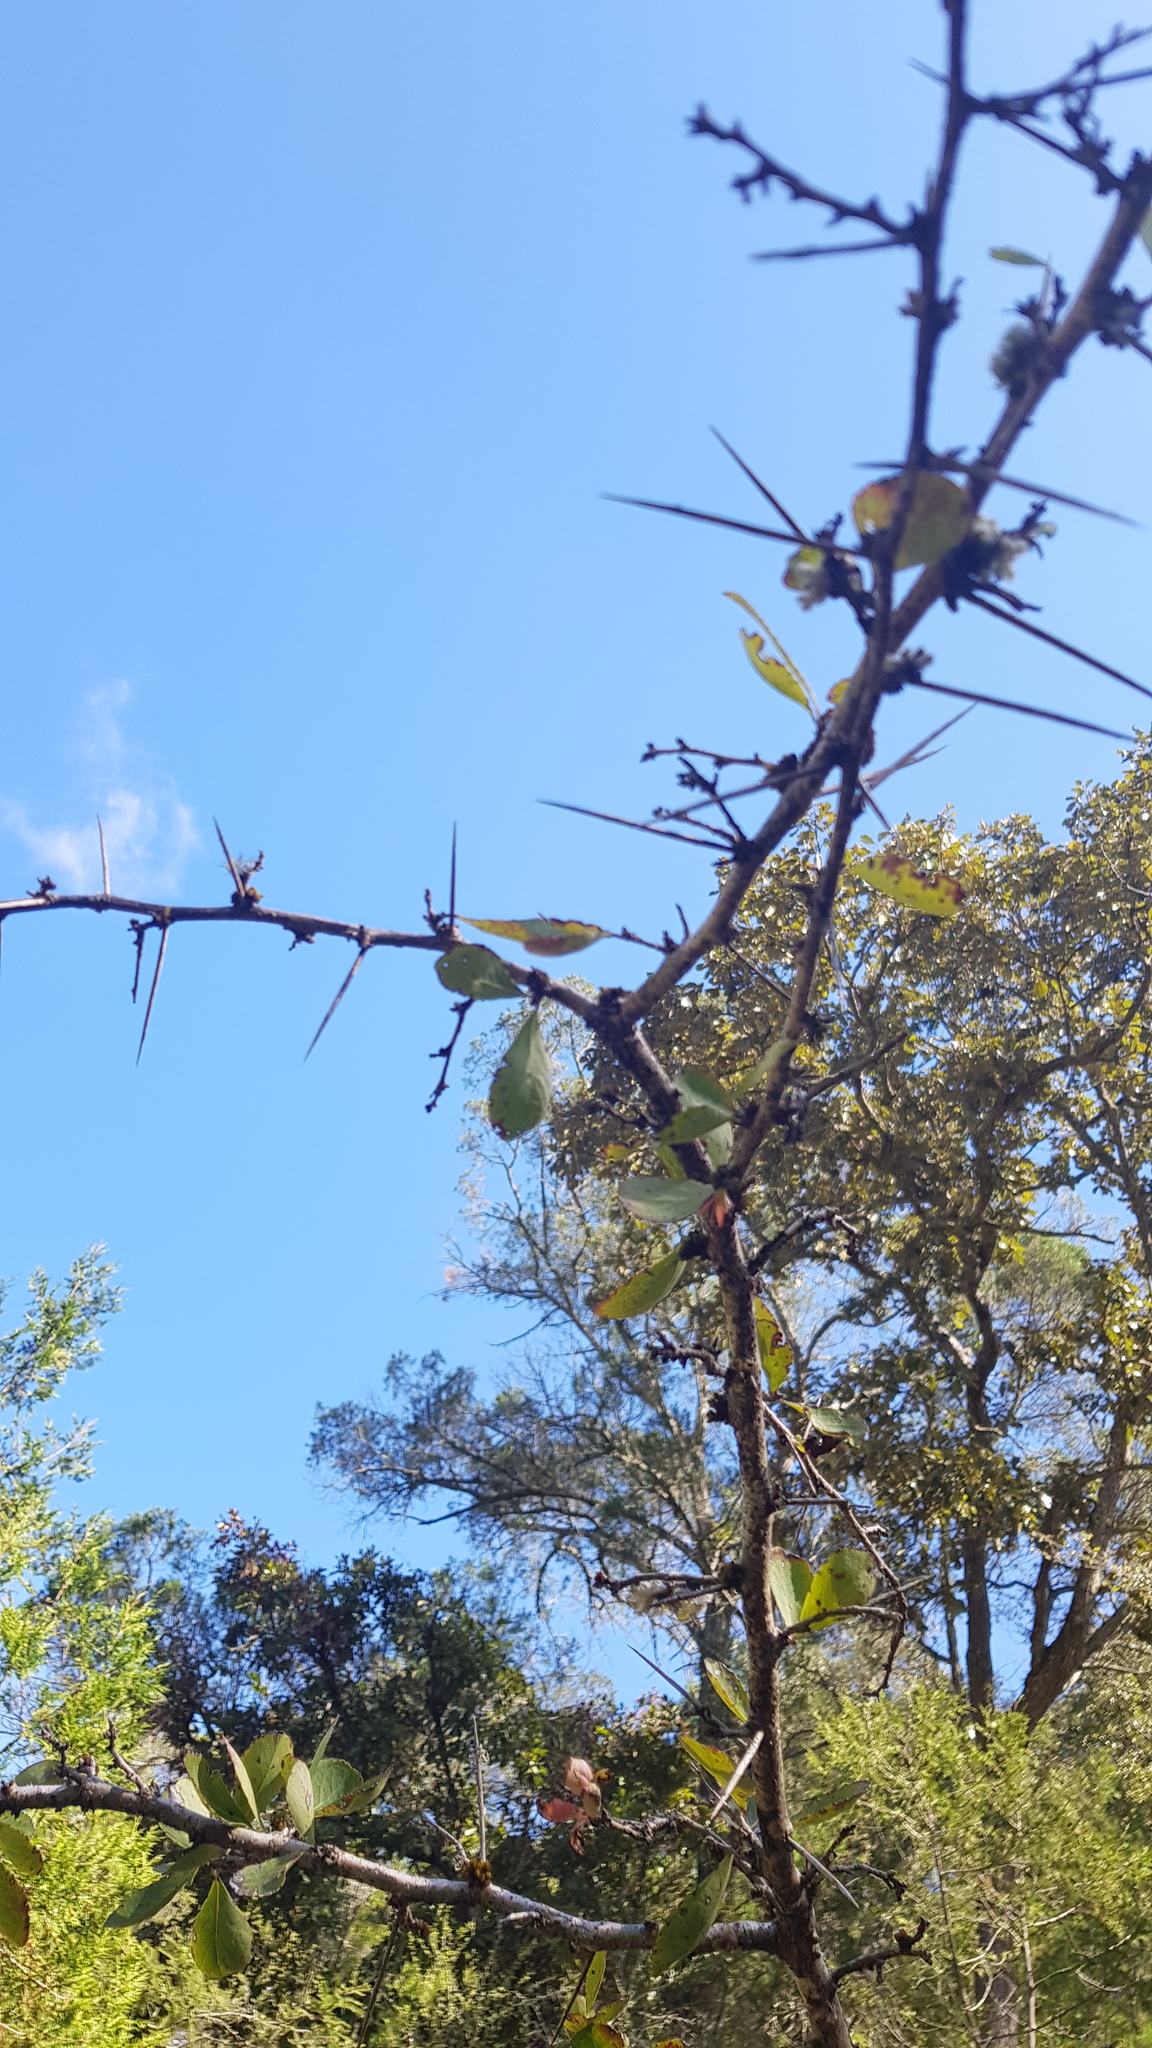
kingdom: Plantae
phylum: Tracheophyta
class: Magnoliopsida
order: Malpighiales
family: Salicaceae
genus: Xylosma
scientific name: Xylosma panamensis
